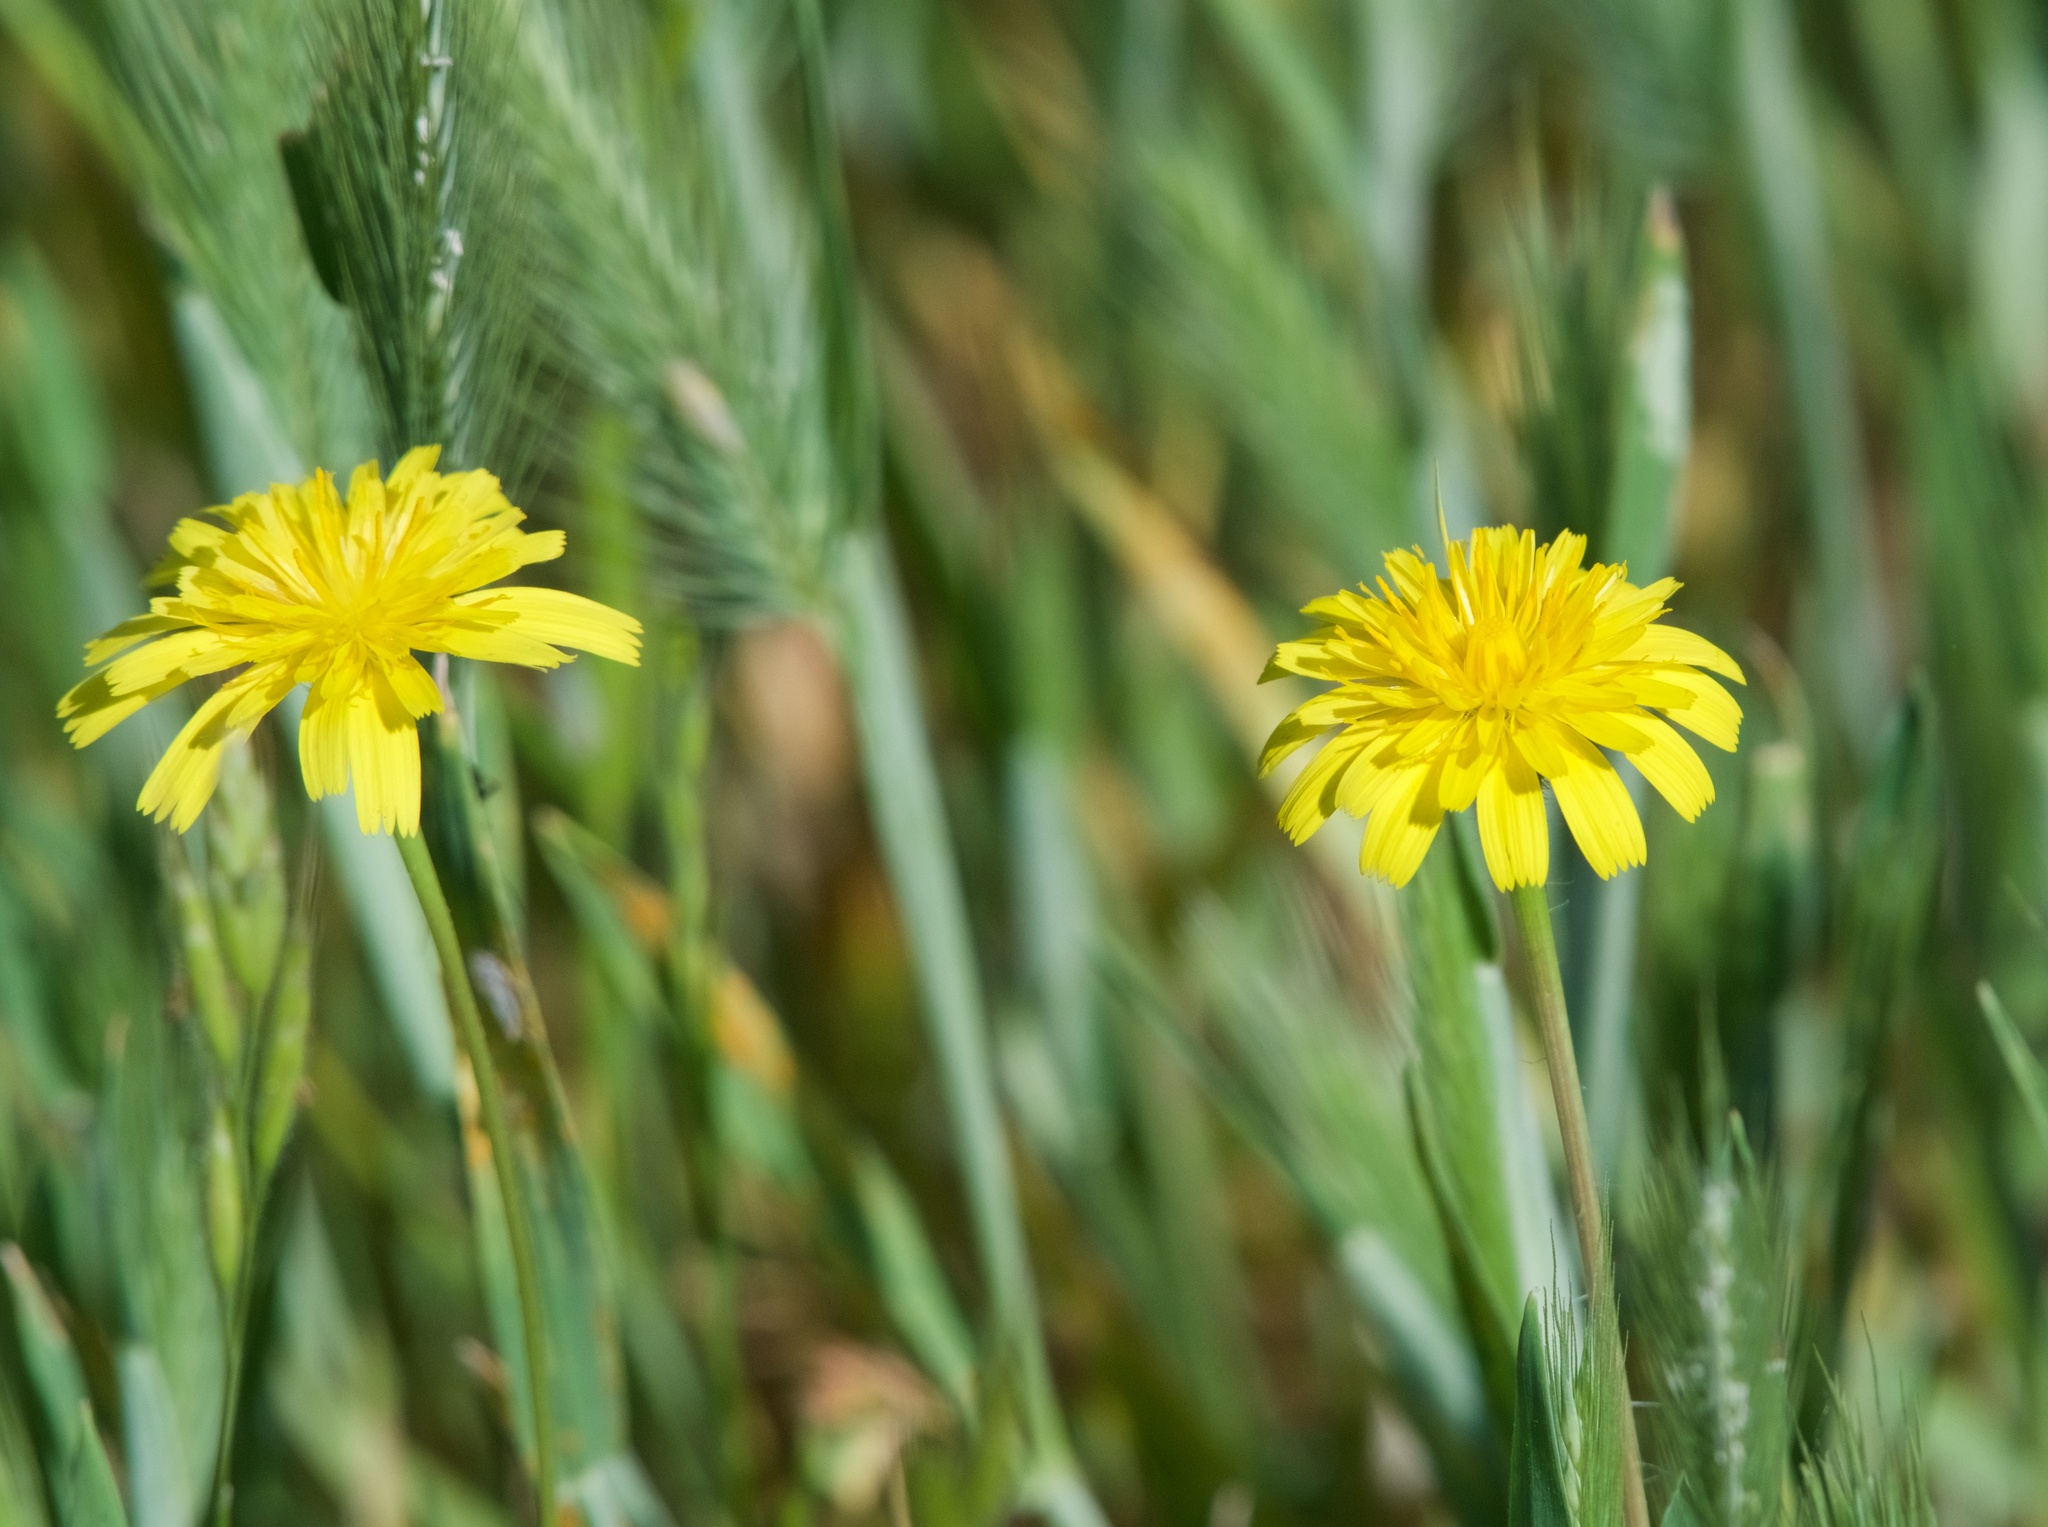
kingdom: Plantae
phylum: Tracheophyta
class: Magnoliopsida
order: Asterales
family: Asteraceae
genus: Hypochaeris
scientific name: Hypochaeris radicata
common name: Flatweed
